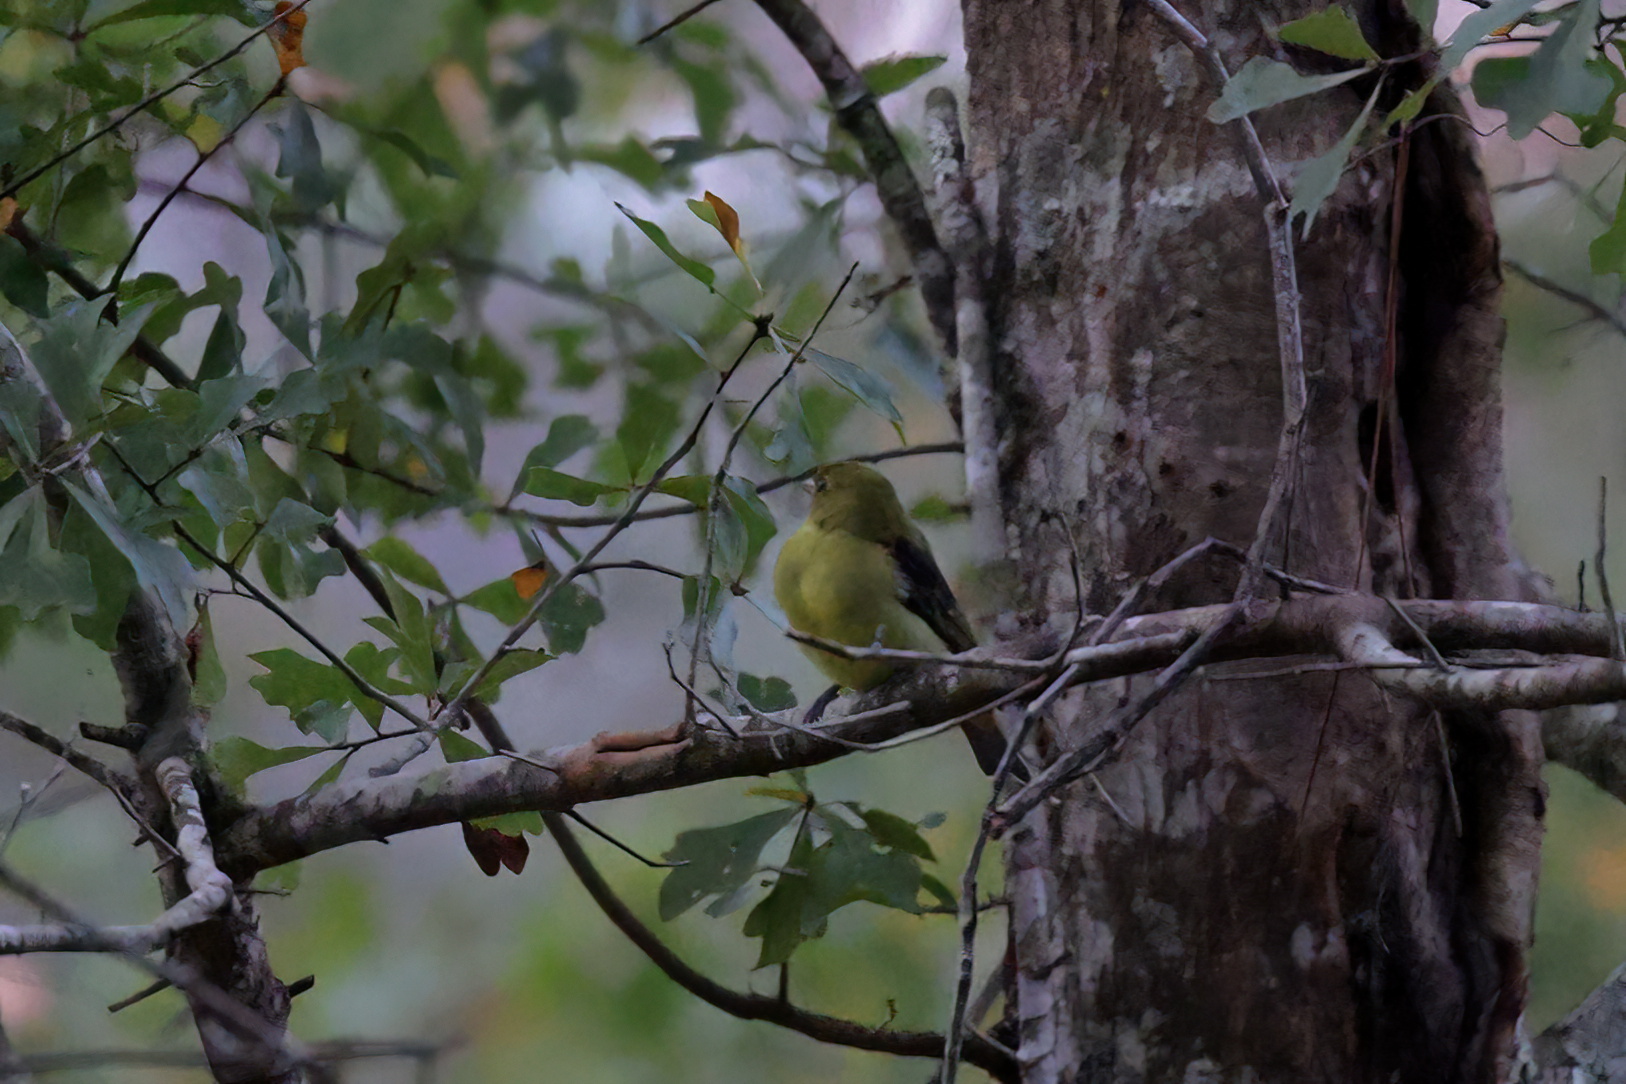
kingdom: Animalia
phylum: Chordata
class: Aves
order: Passeriformes
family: Cardinalidae
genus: Piranga
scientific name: Piranga olivacea
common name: Scarlet tanager
